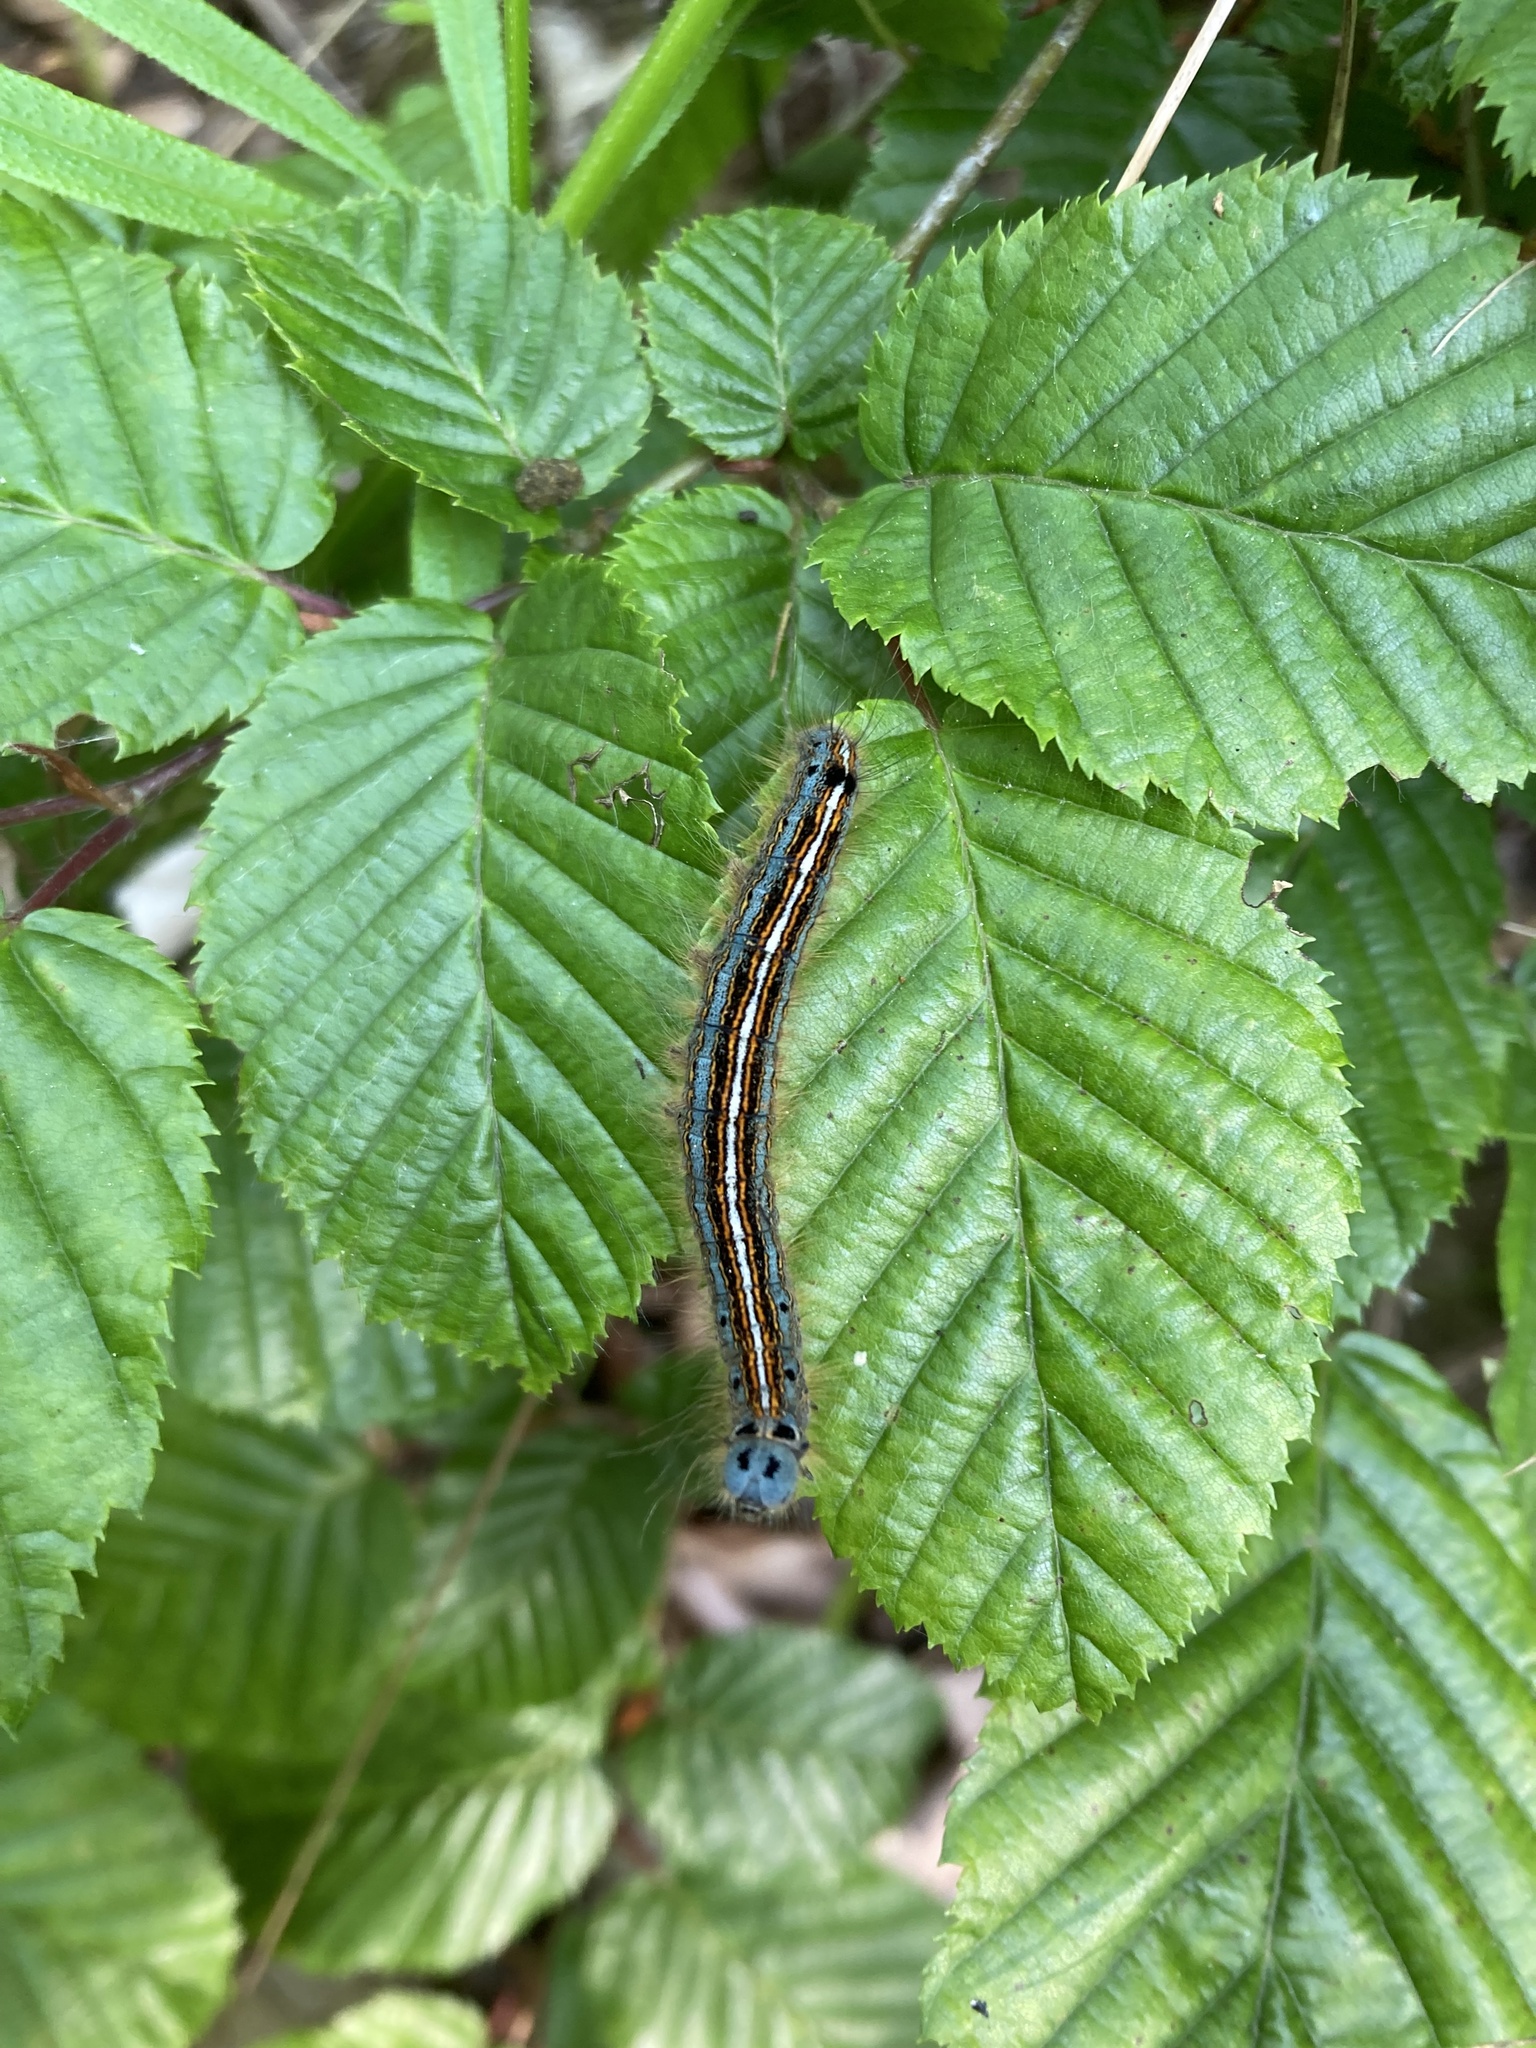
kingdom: Animalia
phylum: Arthropoda
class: Insecta
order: Lepidoptera
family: Lasiocampidae
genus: Malacosoma
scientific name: Malacosoma neustria
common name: The lackey
